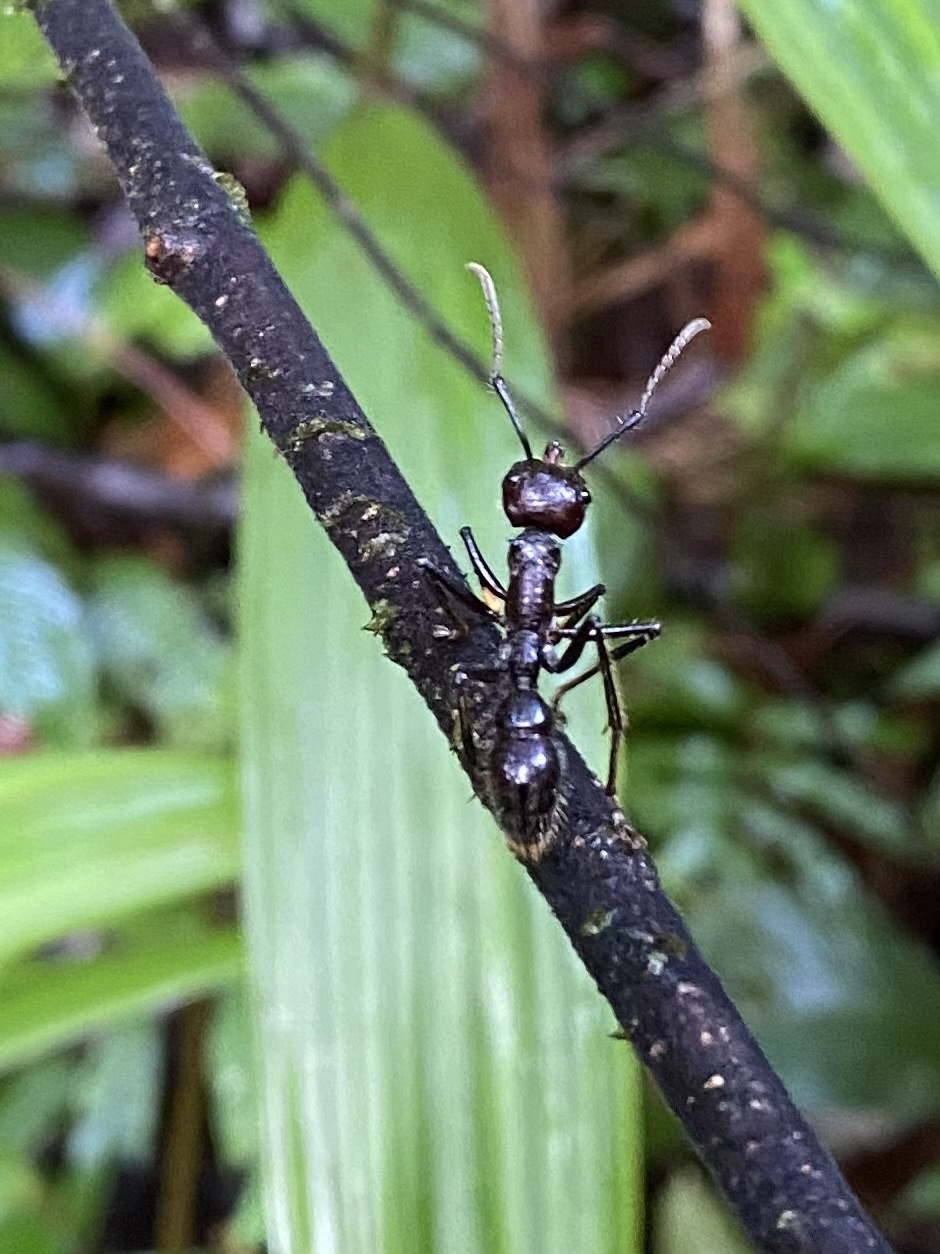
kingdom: Animalia
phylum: Arthropoda
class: Insecta
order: Hymenoptera
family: Formicidae
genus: Paraponera
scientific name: Paraponera clavata
